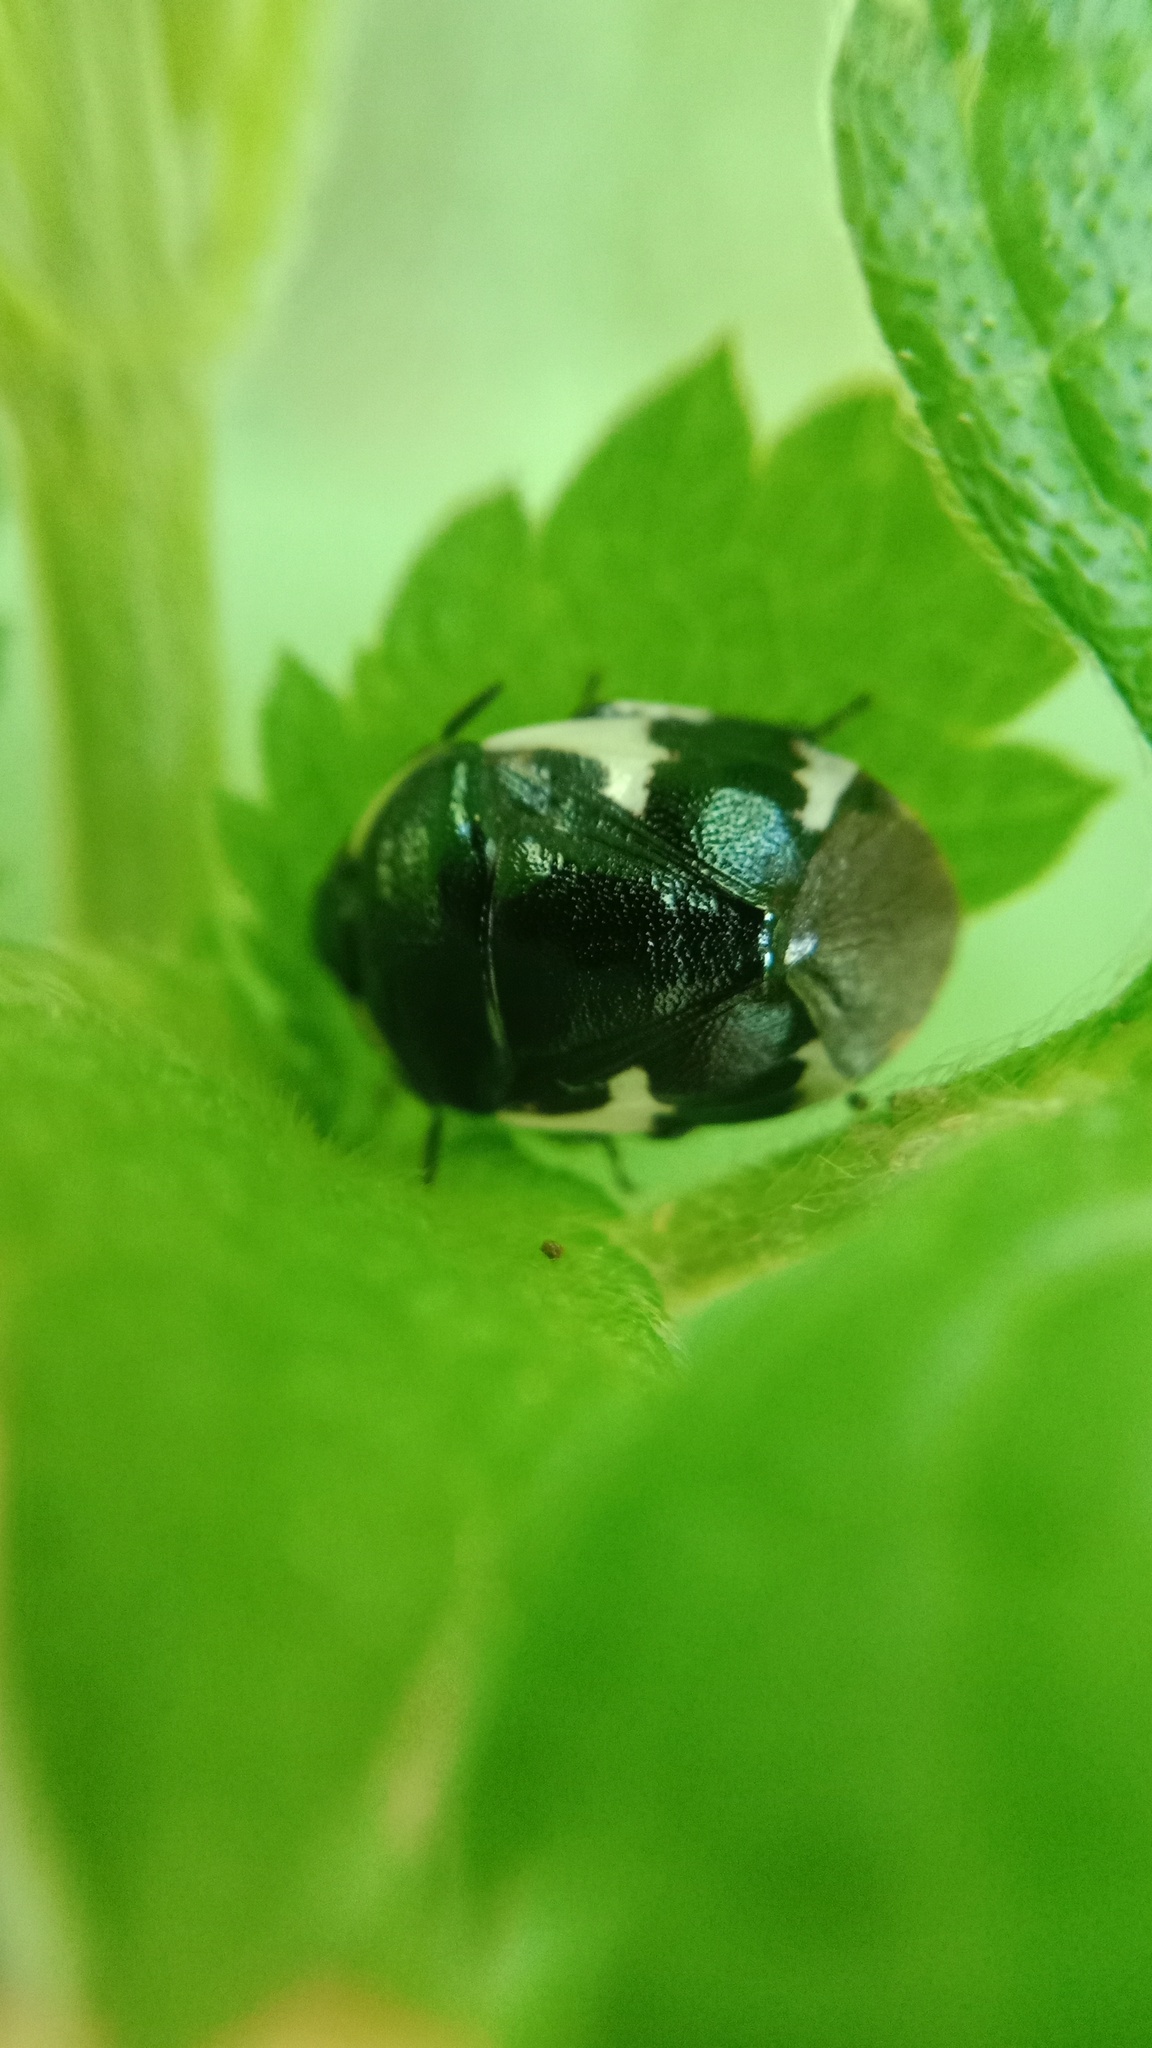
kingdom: Animalia
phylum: Arthropoda
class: Insecta
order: Hemiptera
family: Cydnidae
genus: Tritomegas
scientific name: Tritomegas sexmaculatus
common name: Rambur's pied shieldbug
